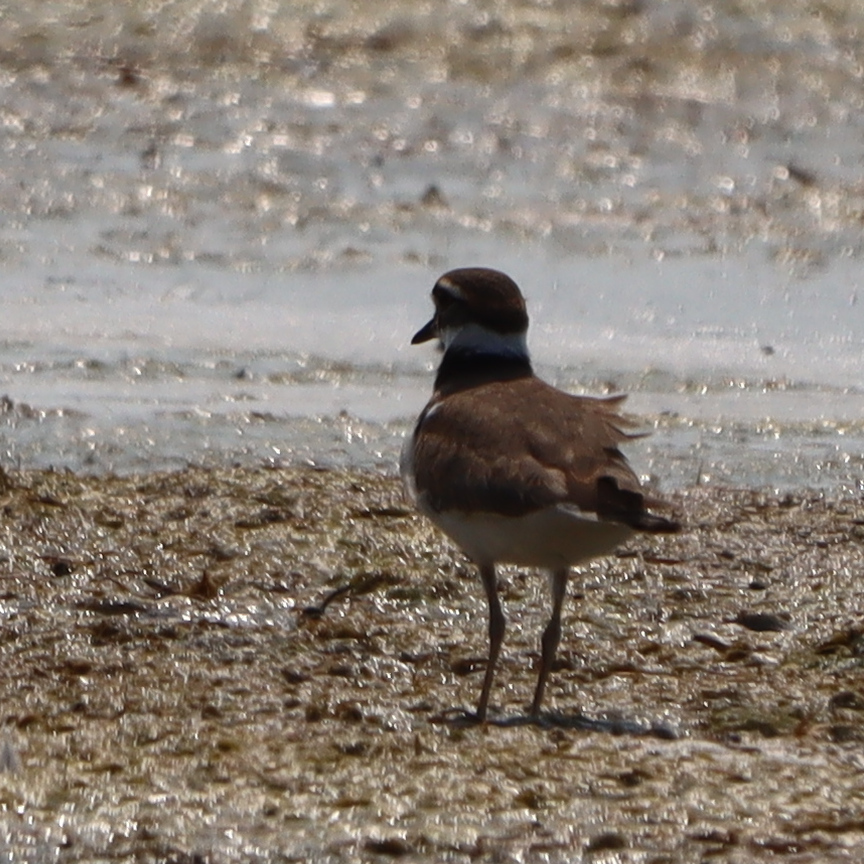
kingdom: Animalia
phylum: Chordata
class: Aves
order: Charadriiformes
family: Charadriidae
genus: Charadrius
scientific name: Charadrius vociferus
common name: Killdeer
